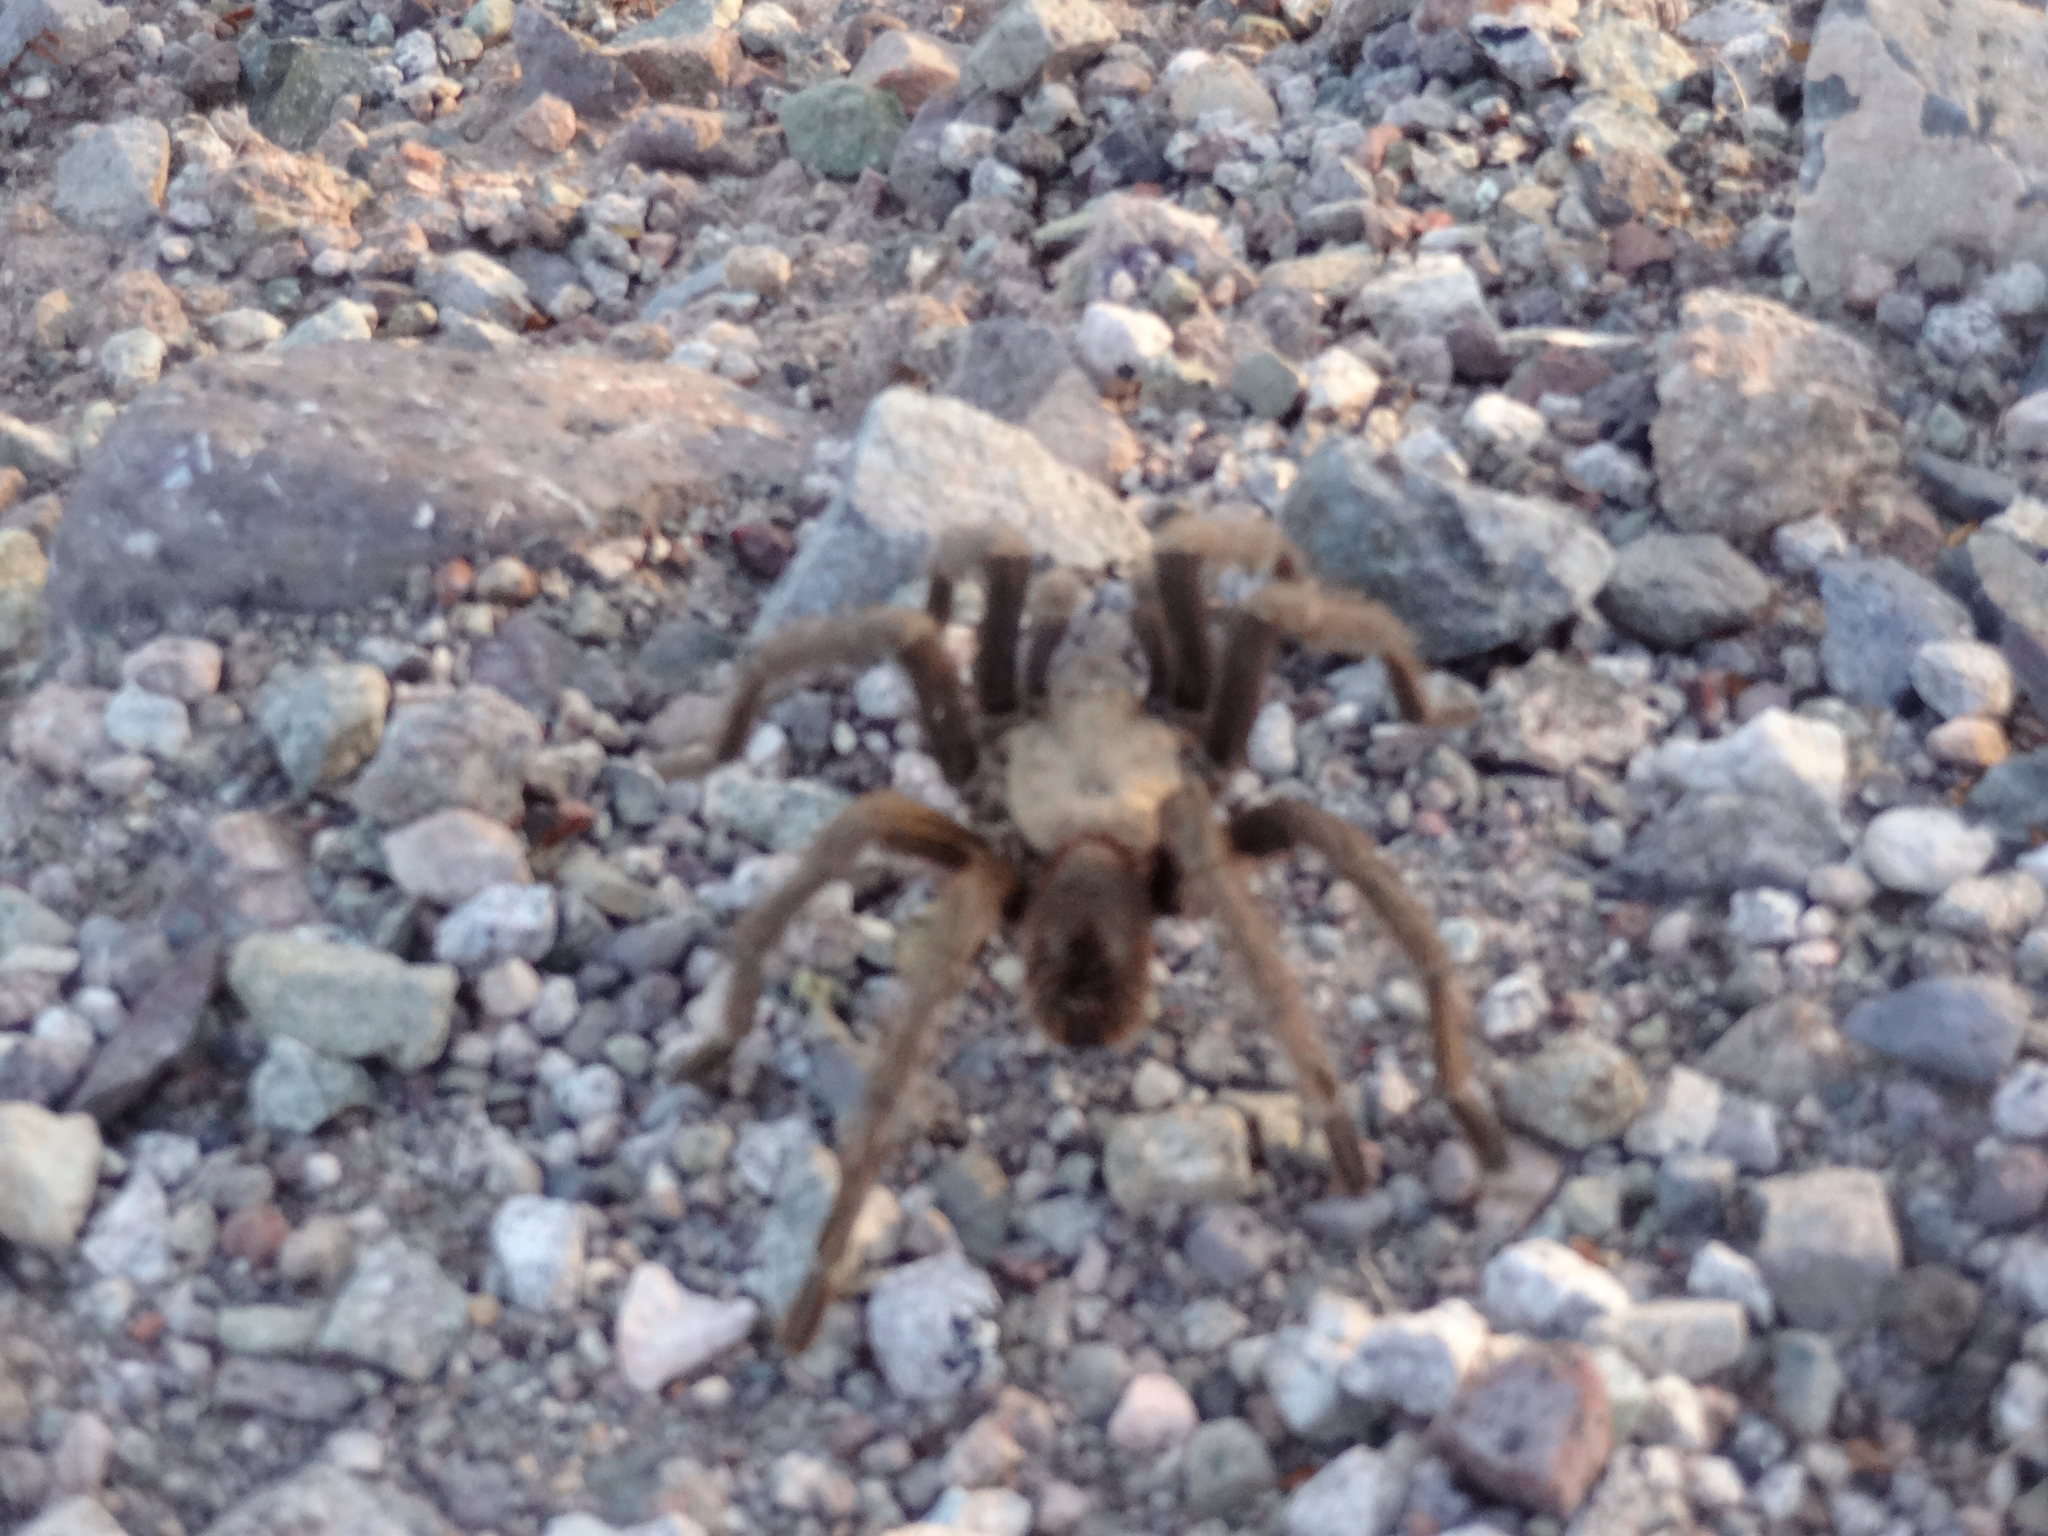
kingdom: Animalia
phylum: Arthropoda
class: Arachnida
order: Araneae
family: Theraphosidae
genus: Aphonopelma
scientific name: Aphonopelma iodius
